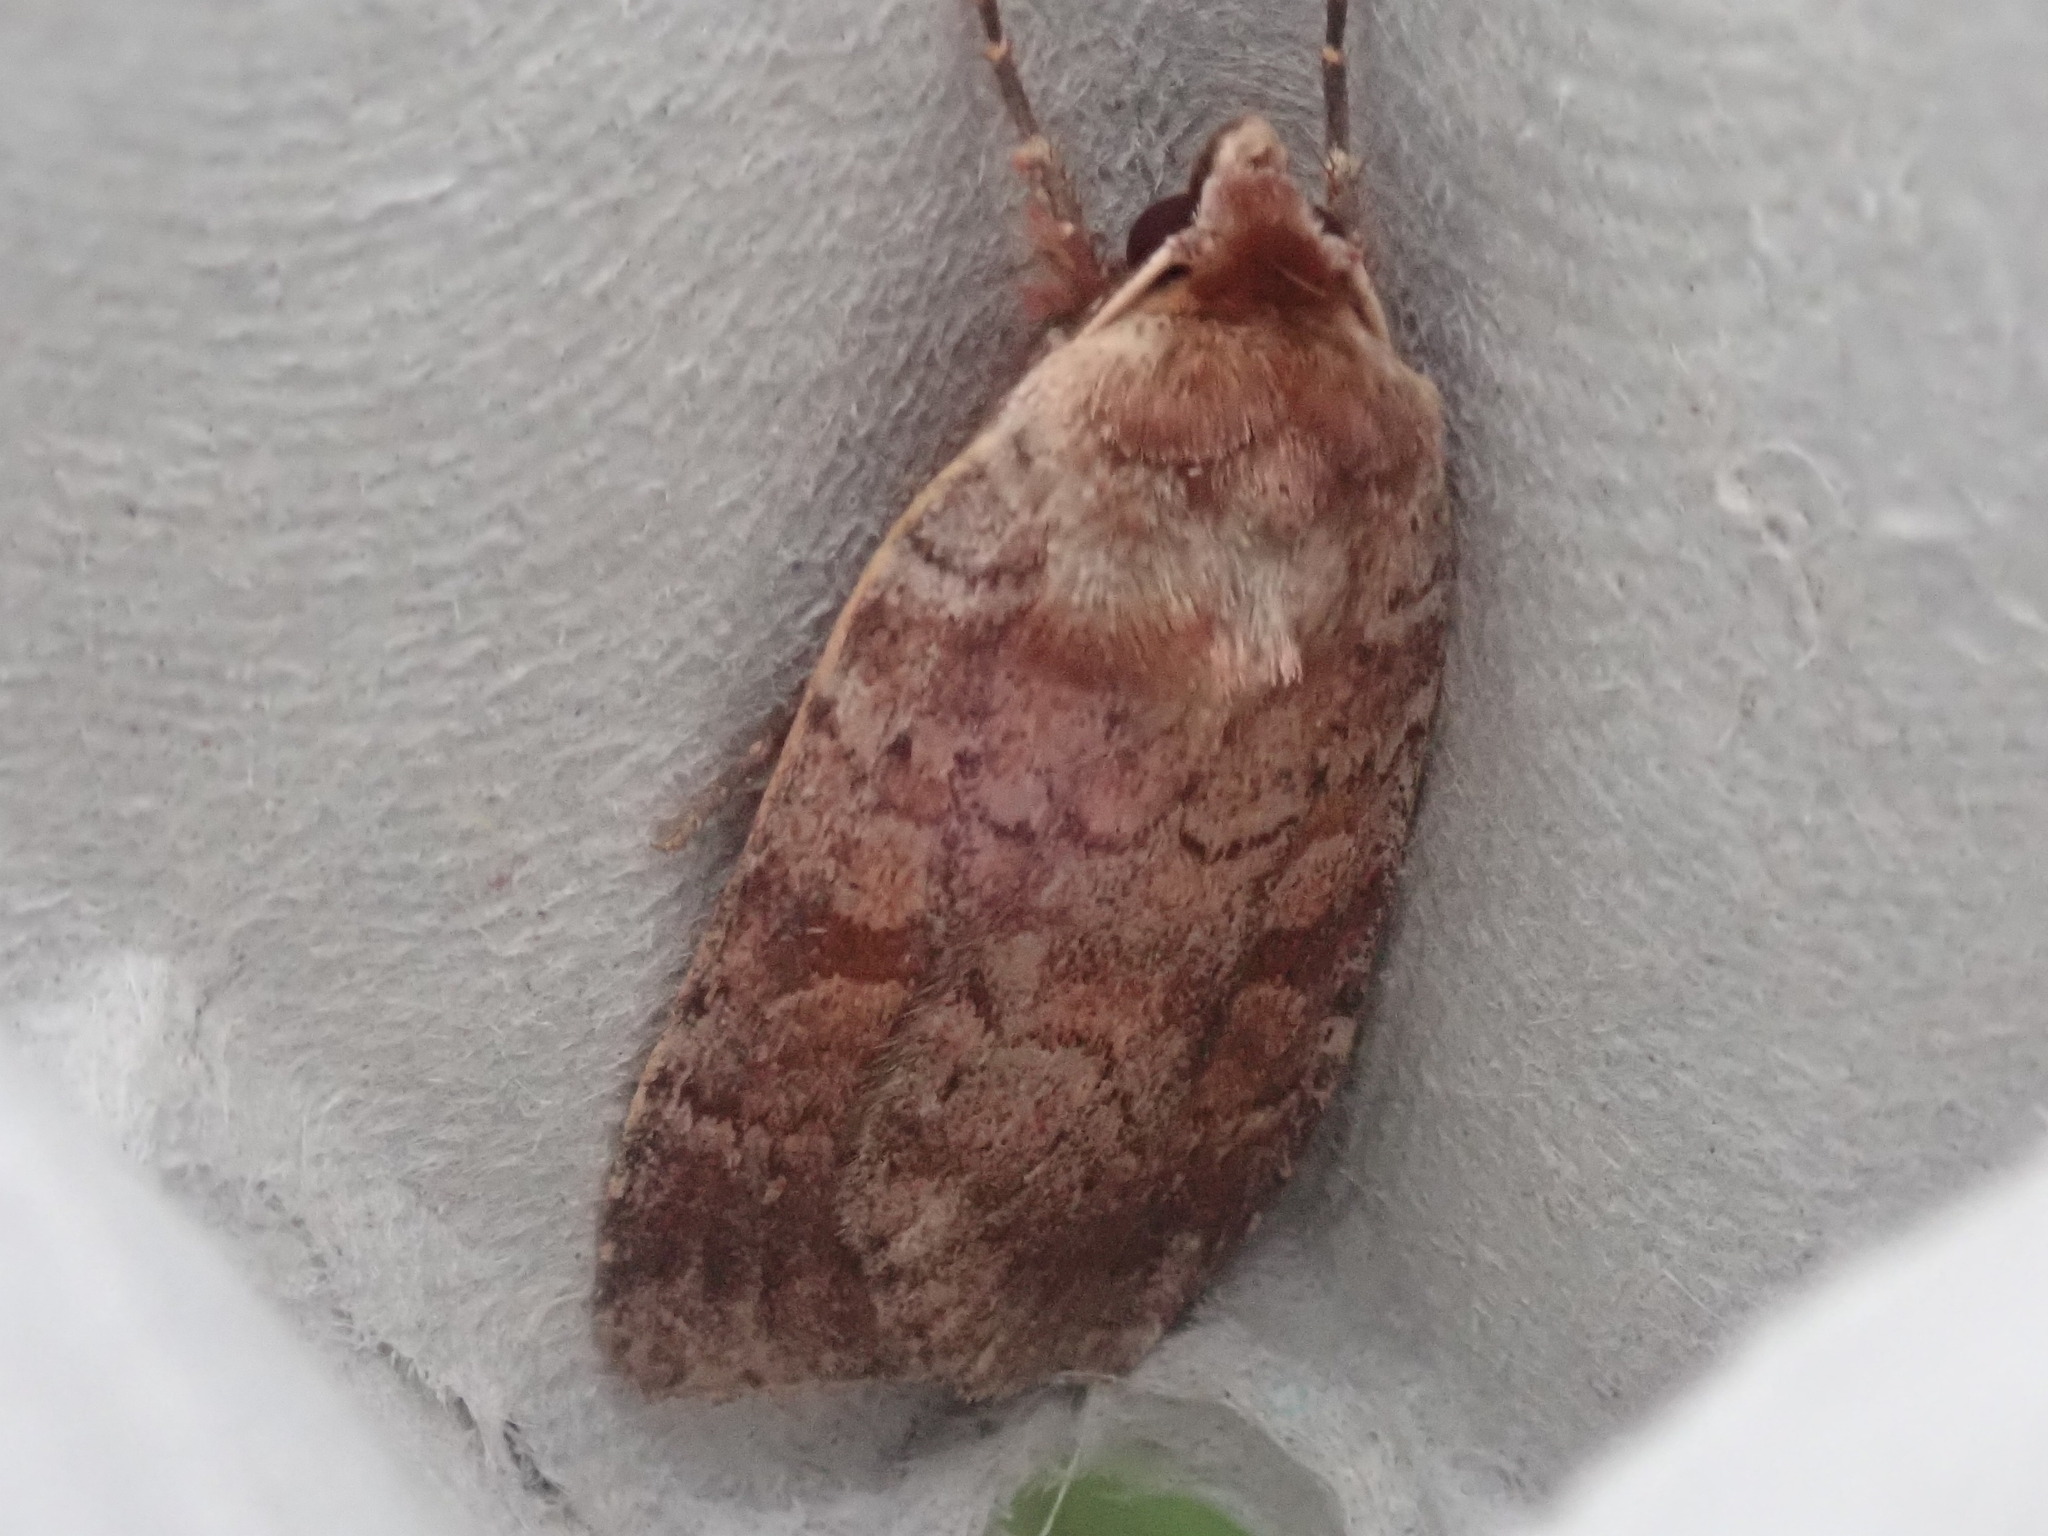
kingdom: Animalia
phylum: Arthropoda
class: Insecta
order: Lepidoptera
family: Noctuidae
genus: Lycophotia
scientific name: Lycophotia phyllophora
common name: Lycophotia moth
